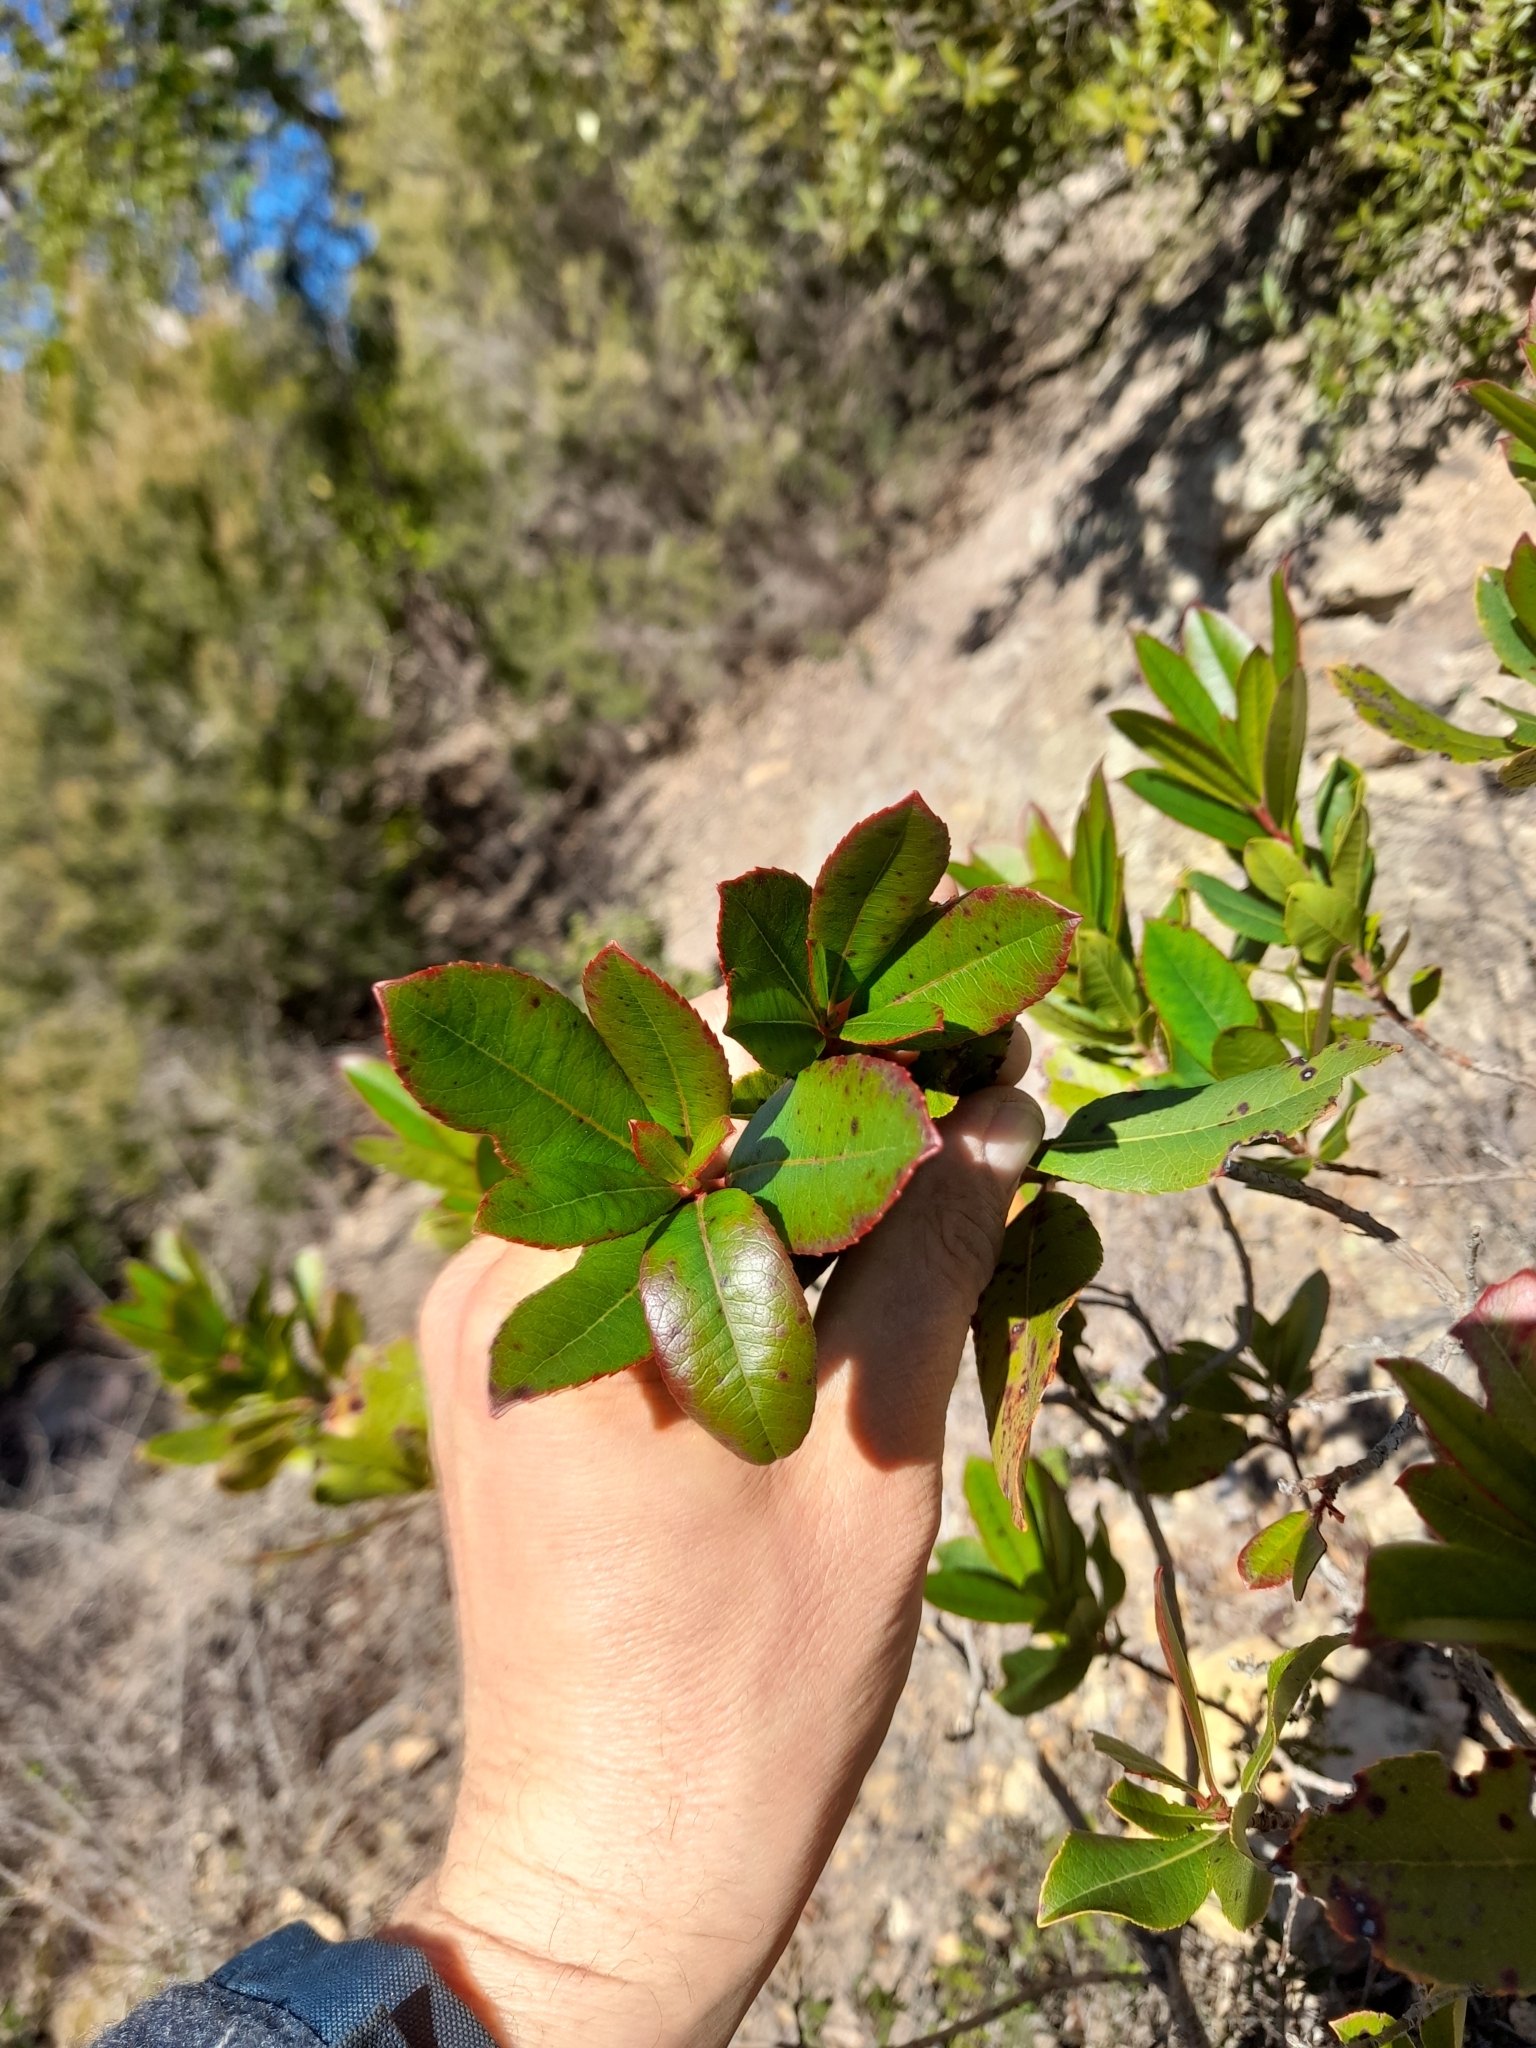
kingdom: Plantae
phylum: Tracheophyta
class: Magnoliopsida
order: Ericales
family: Ericaceae
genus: Arbutus
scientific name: Arbutus unedo
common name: Strawberry-tree
